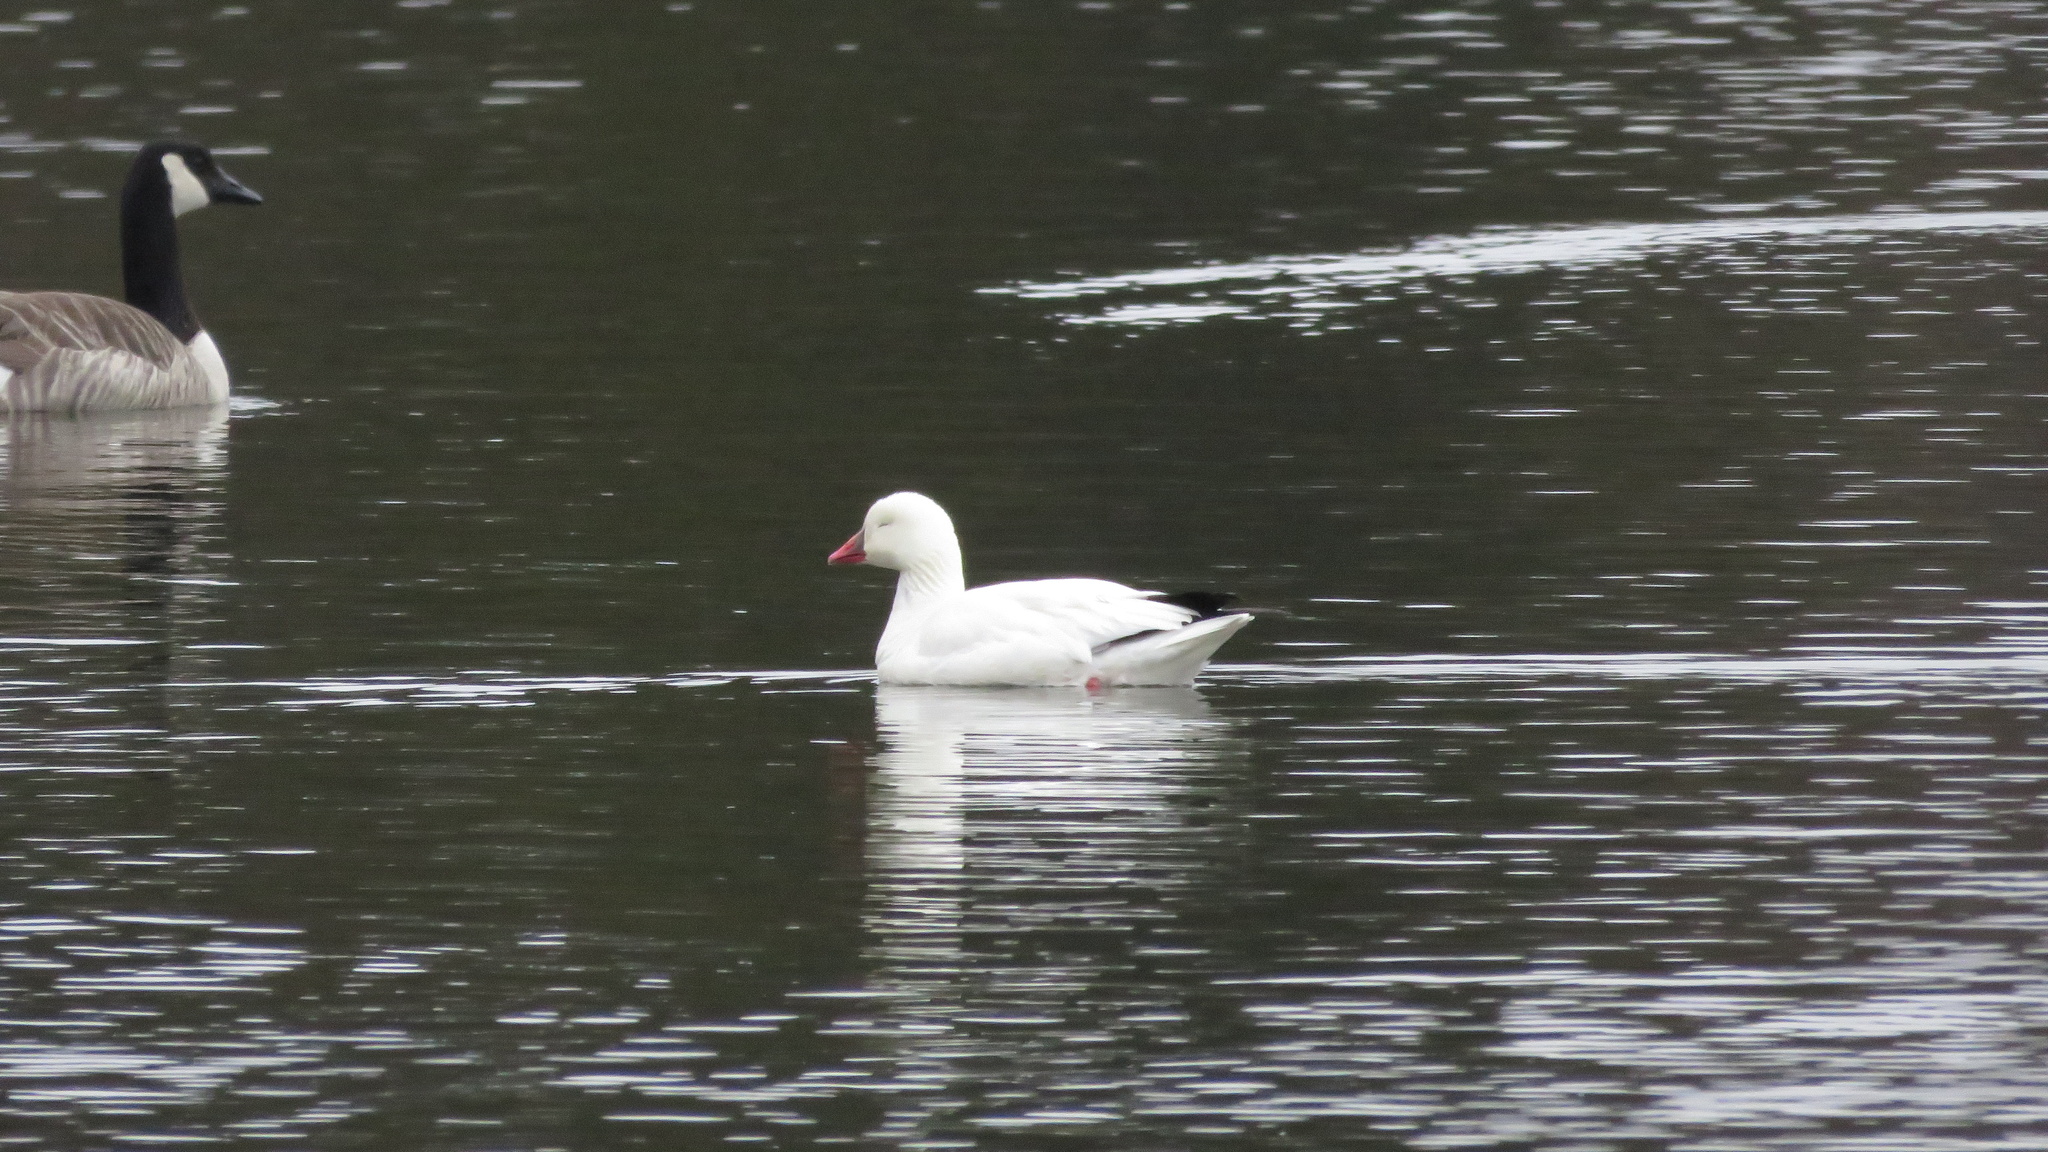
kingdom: Animalia
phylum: Chordata
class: Aves
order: Anseriformes
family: Anatidae
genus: Anser
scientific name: Anser rossii
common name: Ross's goose
